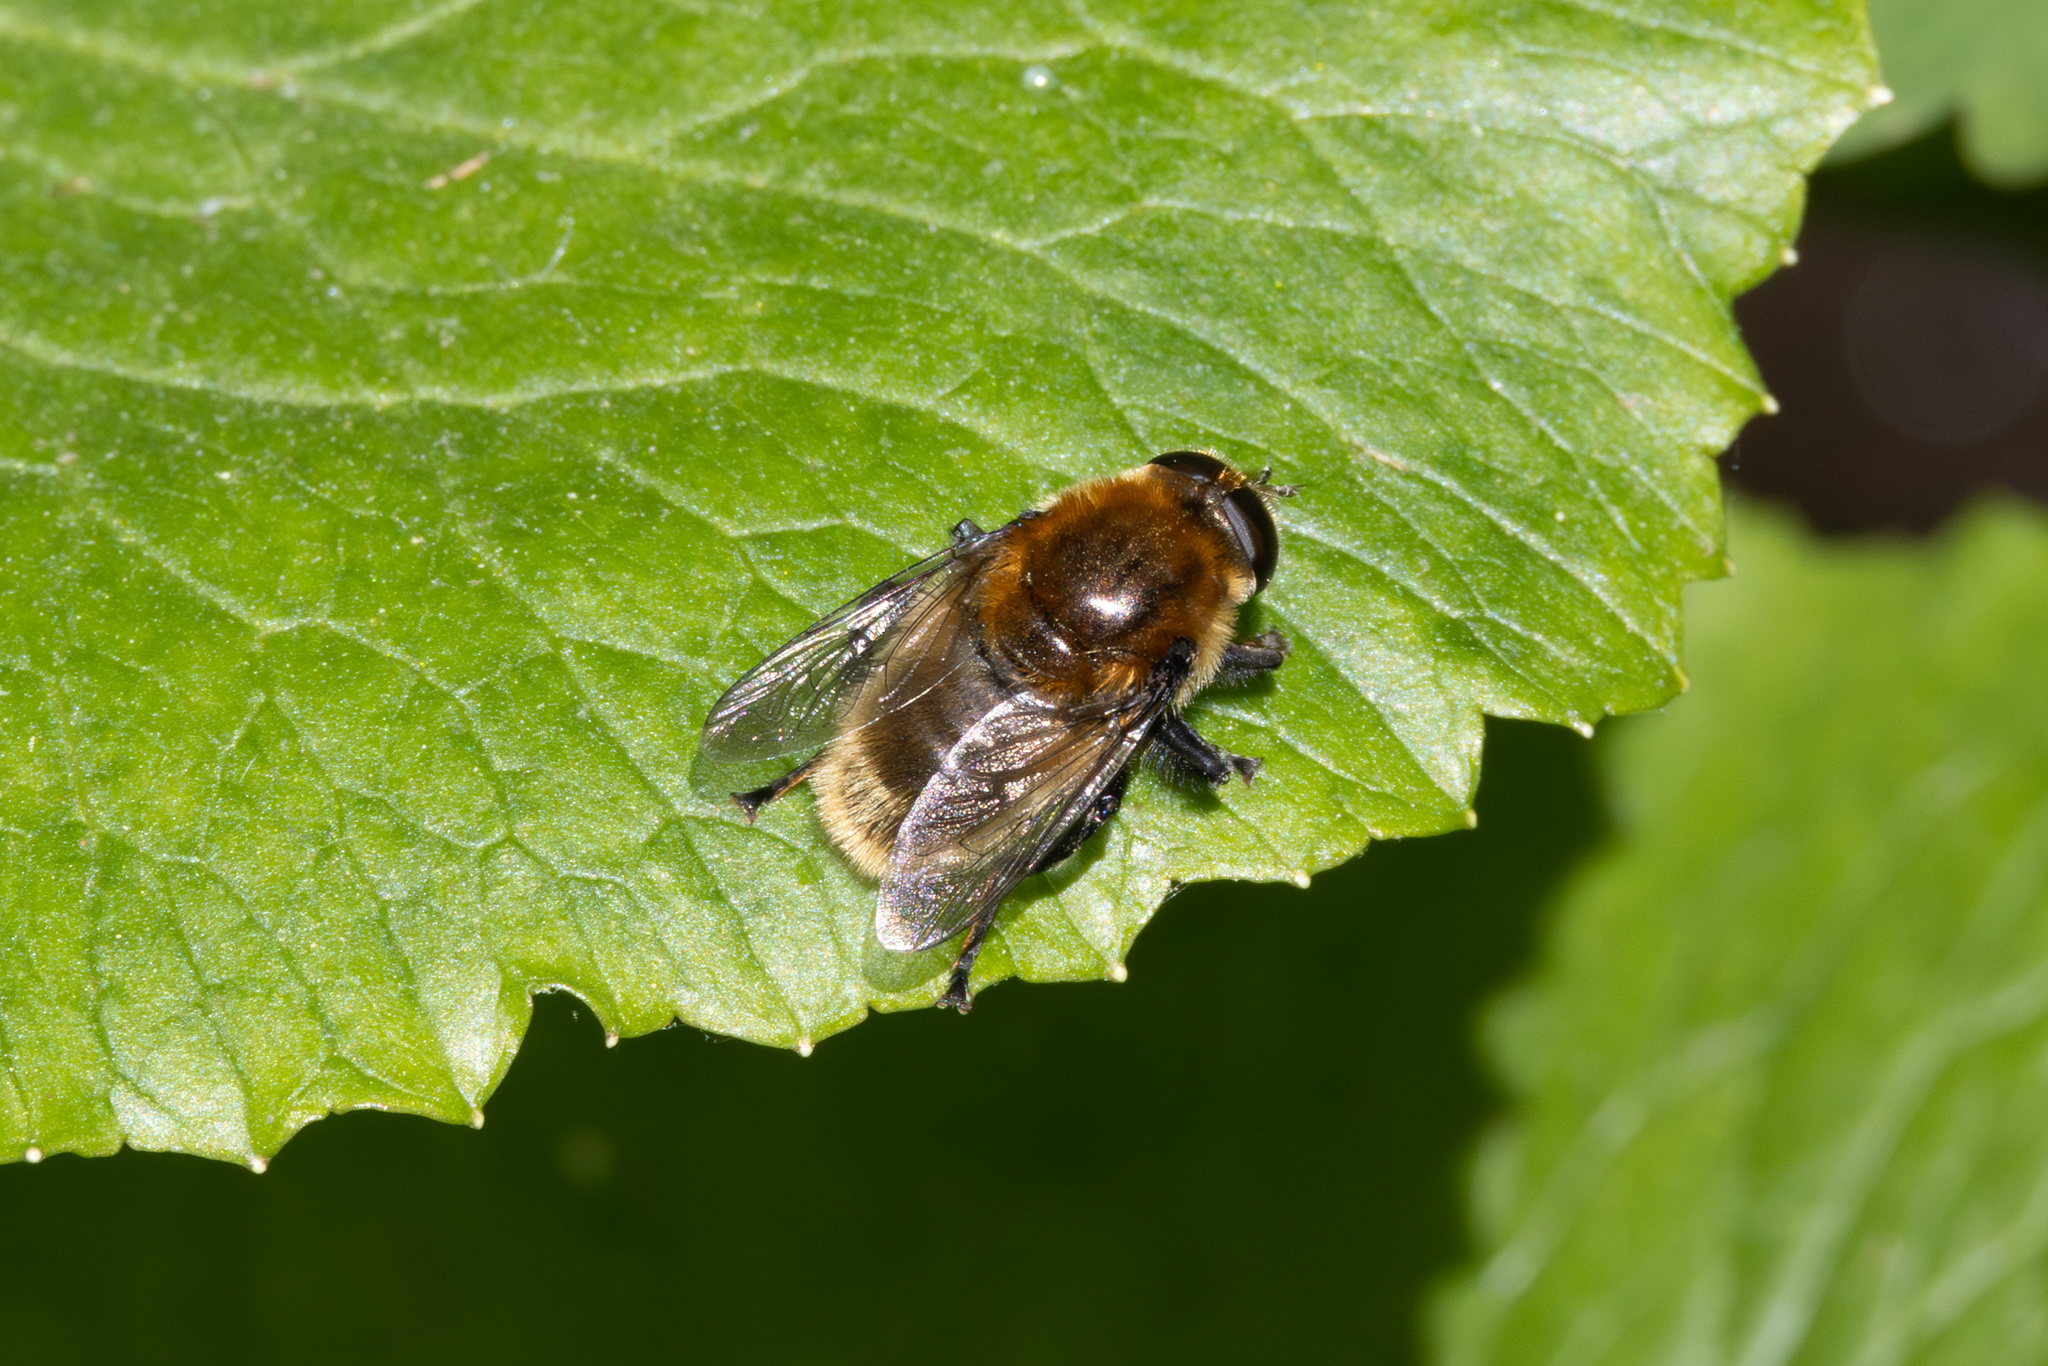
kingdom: Animalia
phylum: Arthropoda
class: Insecta
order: Diptera
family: Syrphidae
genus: Merodon
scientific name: Merodon equestris
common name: Greater bulb-fly
